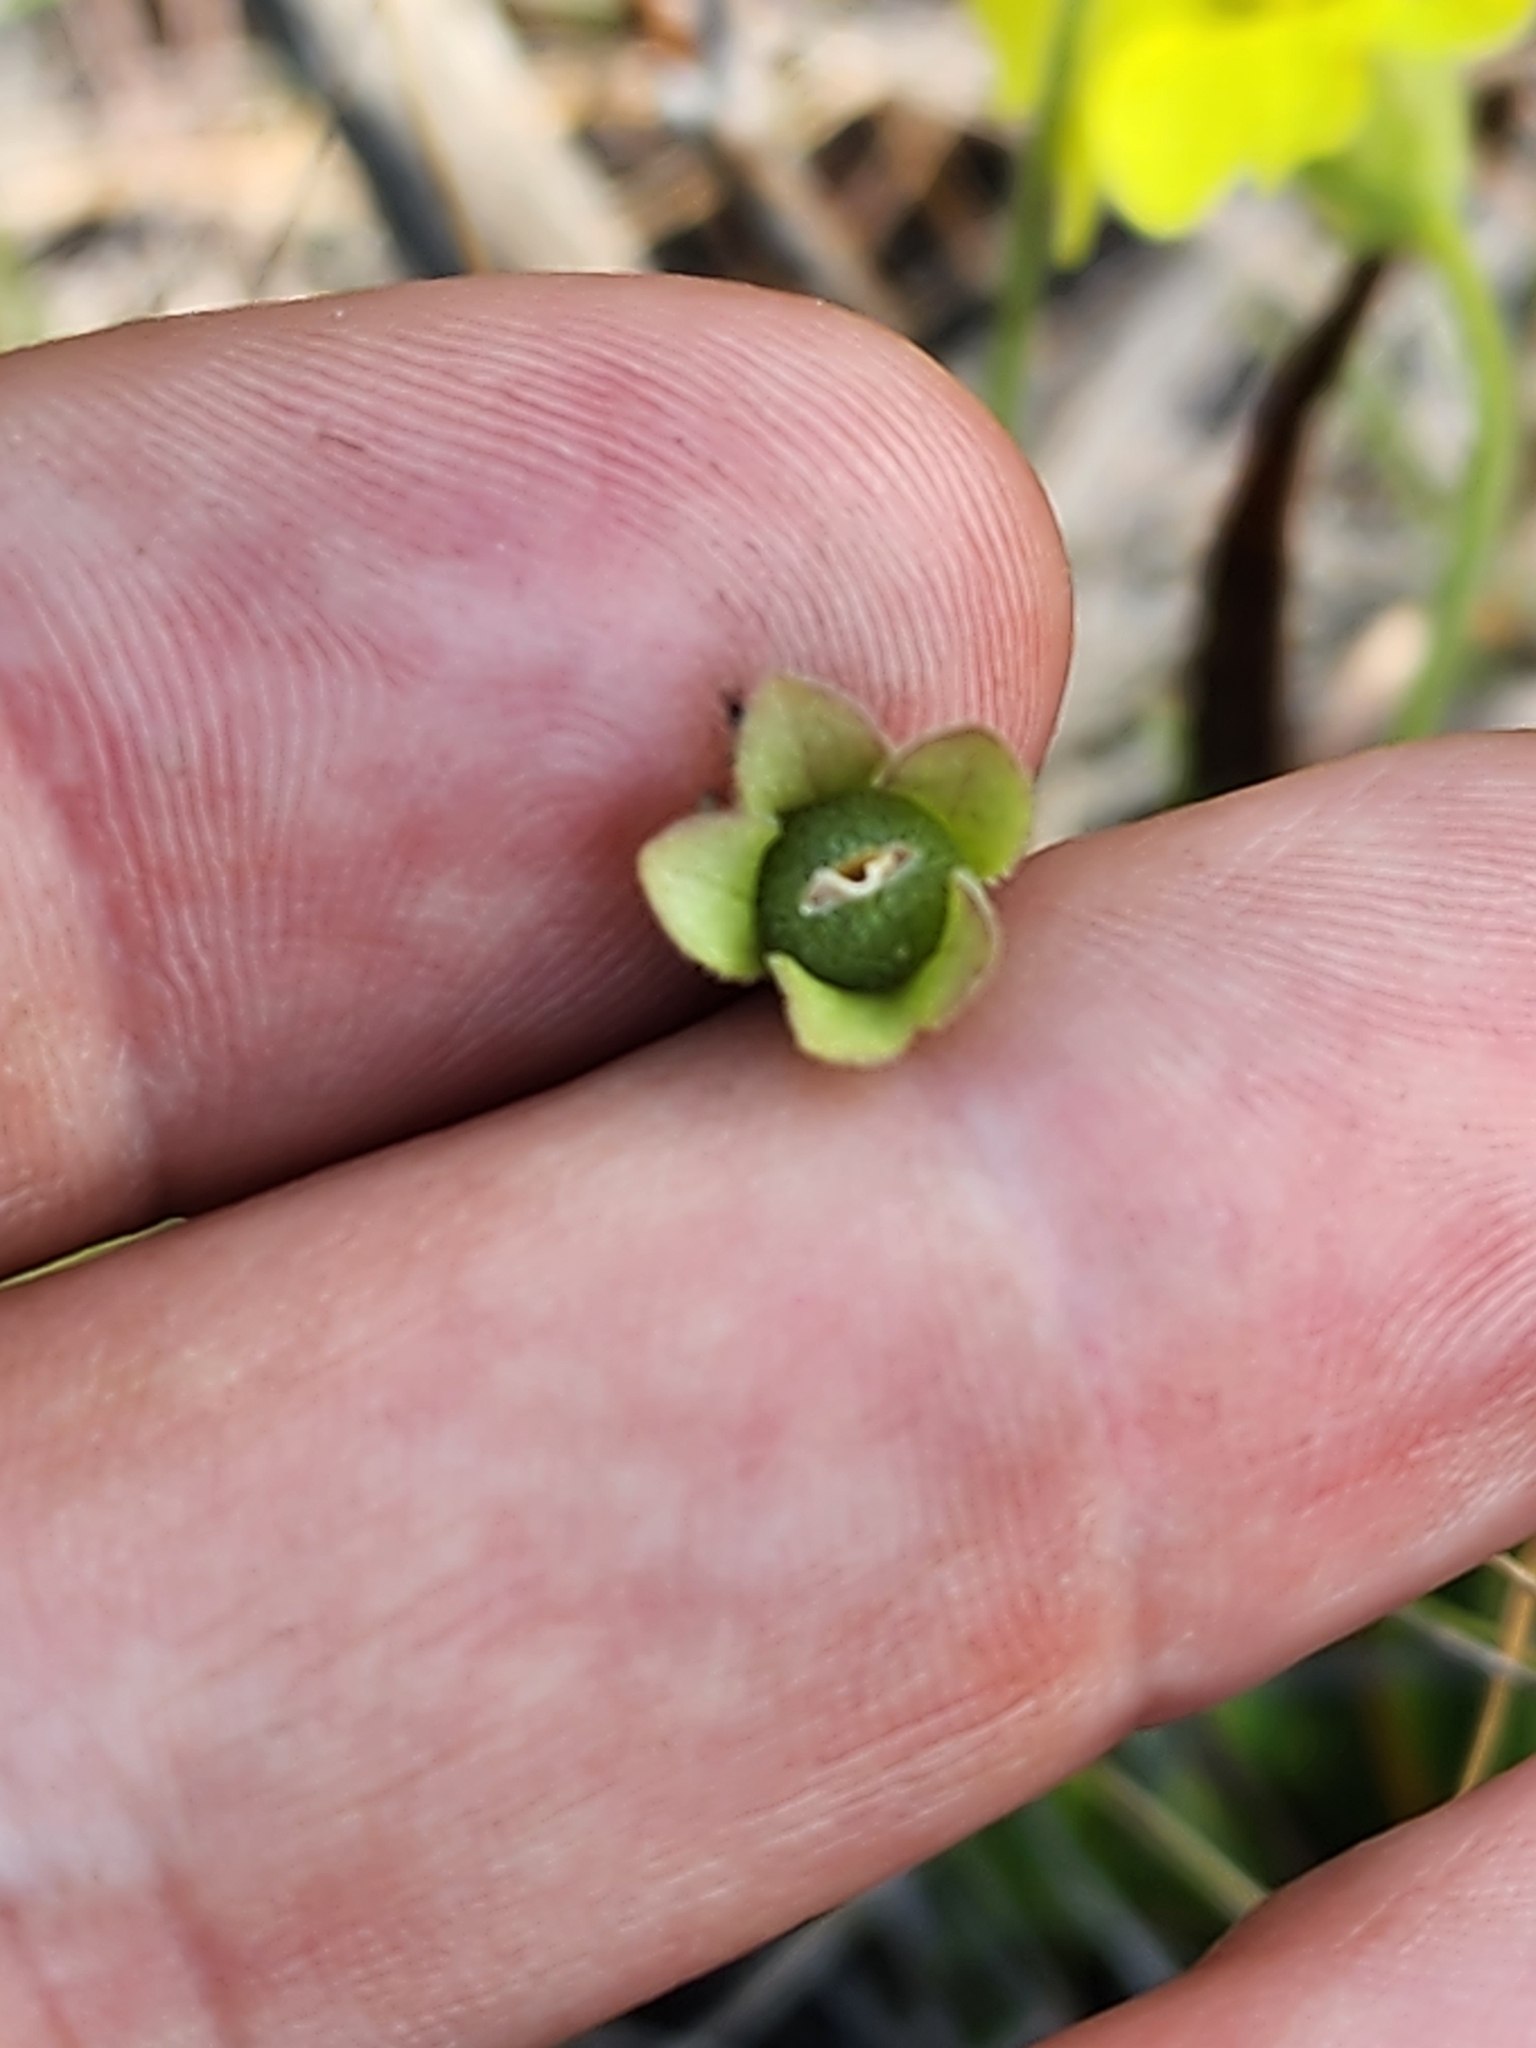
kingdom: Plantae
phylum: Tracheophyta
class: Magnoliopsida
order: Lamiales
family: Lentibulariaceae
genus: Pinguicula
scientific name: Pinguicula lutea
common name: Yellow butterwort
